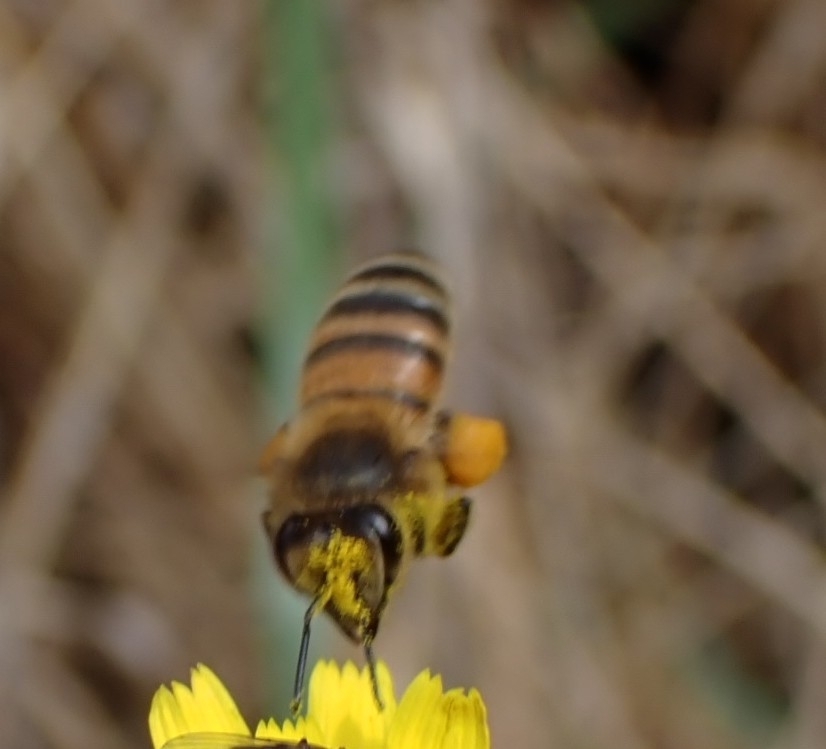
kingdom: Animalia
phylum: Arthropoda
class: Insecta
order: Hymenoptera
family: Apidae
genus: Apis
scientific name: Apis mellifera
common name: Honey bee
